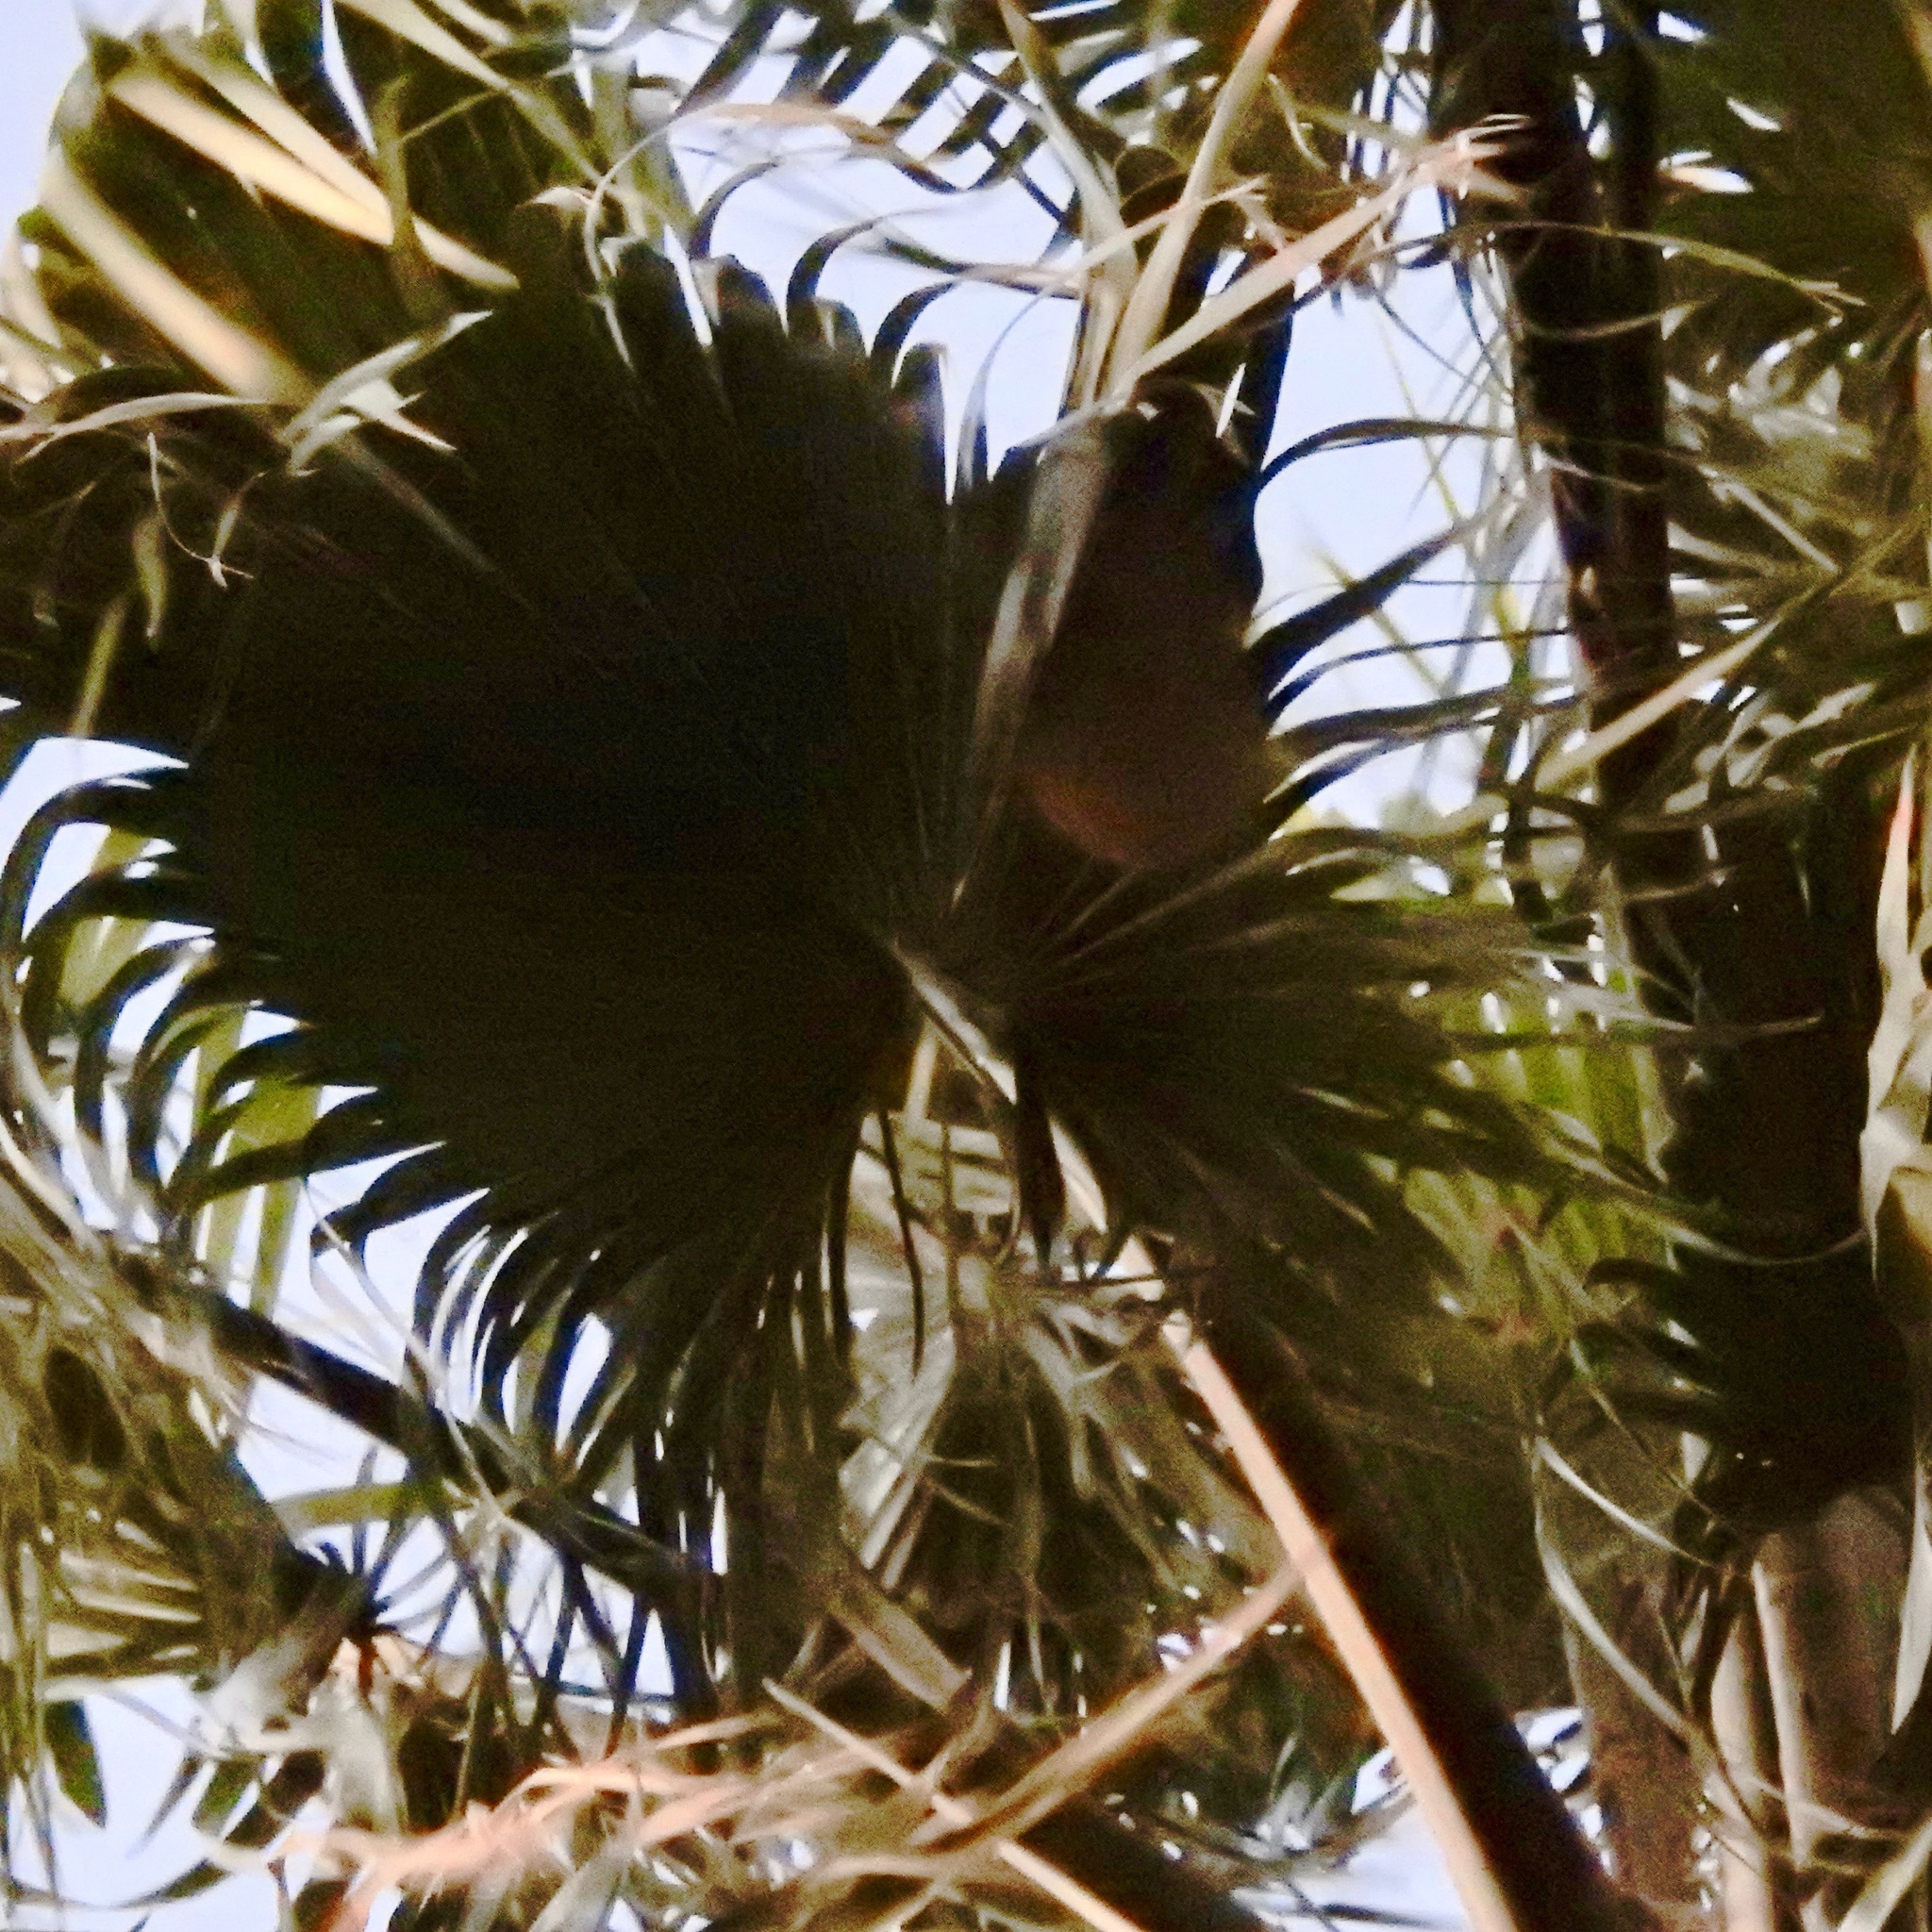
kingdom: Animalia
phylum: Chordata
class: Aves
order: Passeriformes
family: Icteridae
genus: Icterus
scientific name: Icterus cucullatus
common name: Hooded oriole
